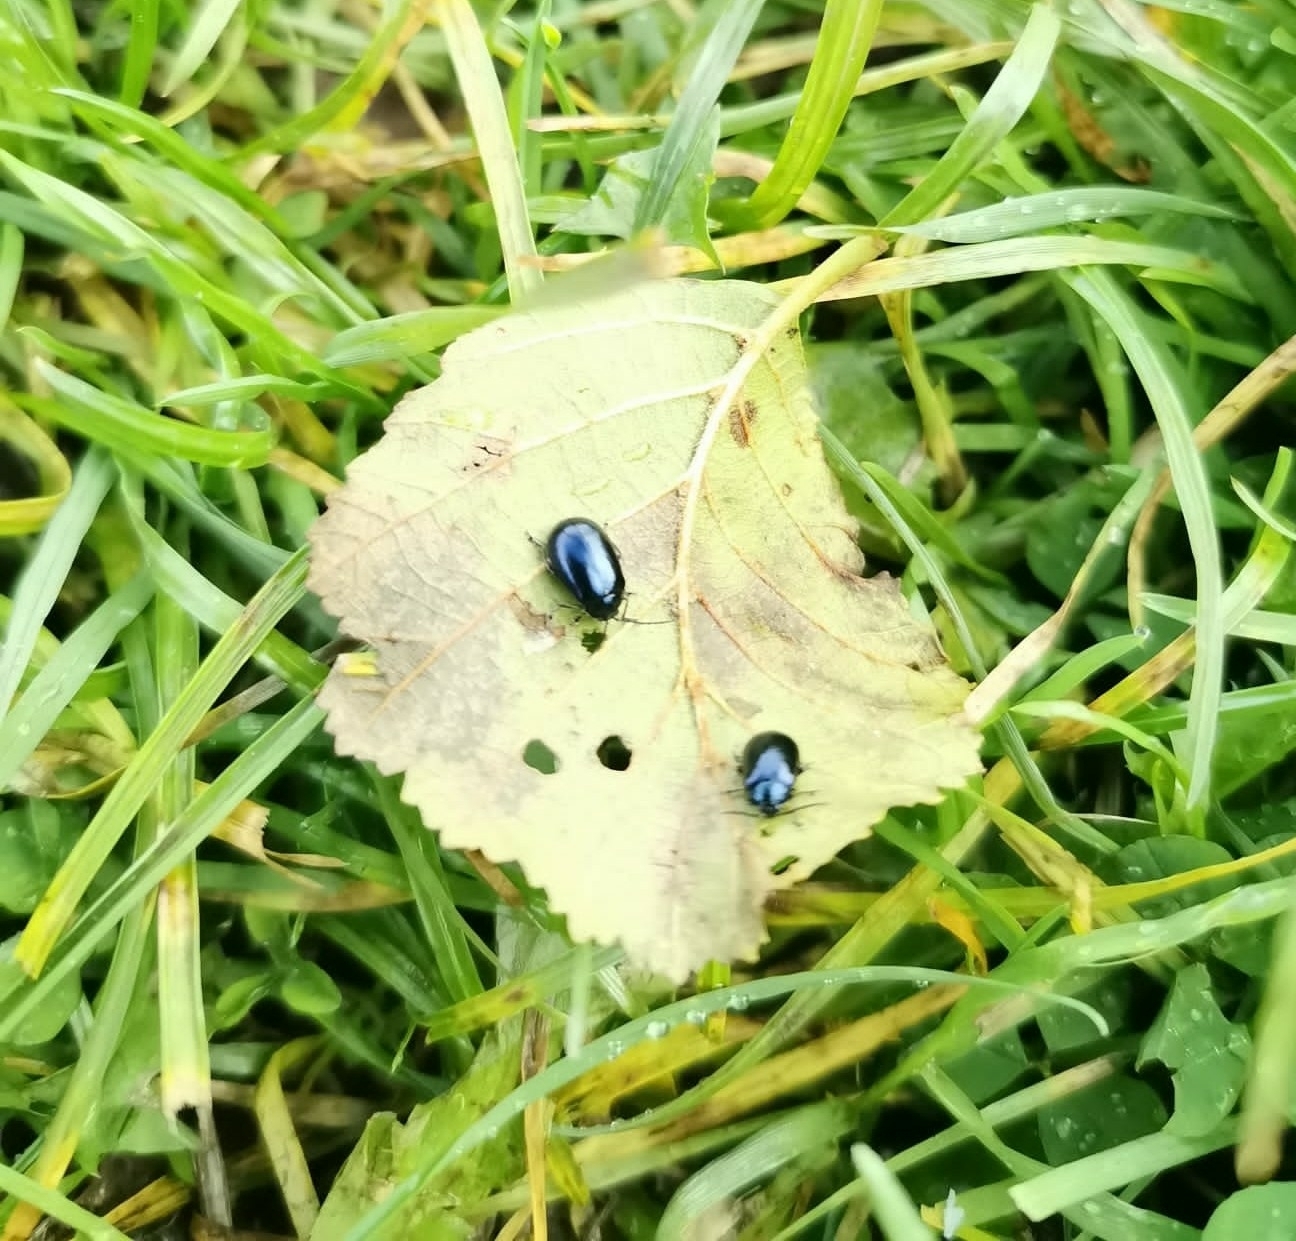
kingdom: Animalia
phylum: Arthropoda
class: Insecta
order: Coleoptera
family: Chrysomelidae
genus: Agelastica
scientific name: Agelastica alni
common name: Alder leaf beetle
